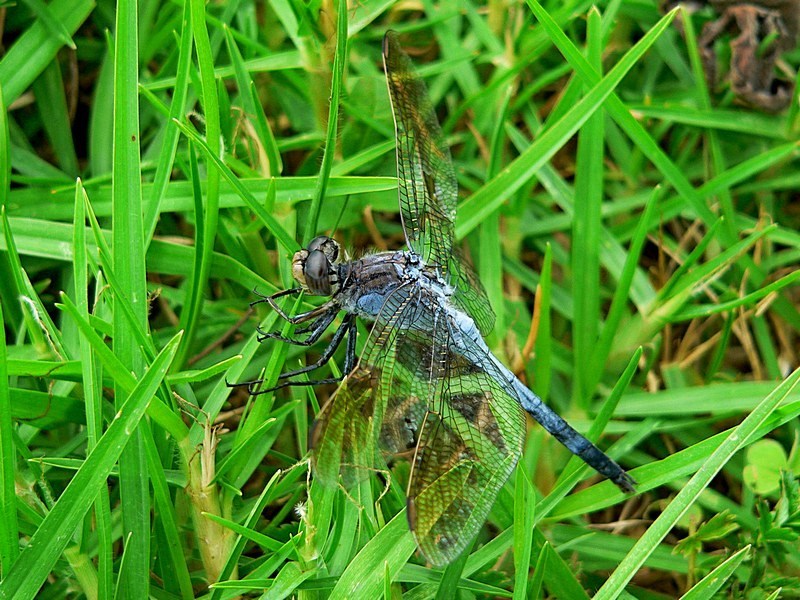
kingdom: Animalia
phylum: Arthropoda
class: Insecta
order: Odonata
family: Libellulidae
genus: Orthetrum
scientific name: Orthetrum caledonicum
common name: Blue skimmer
